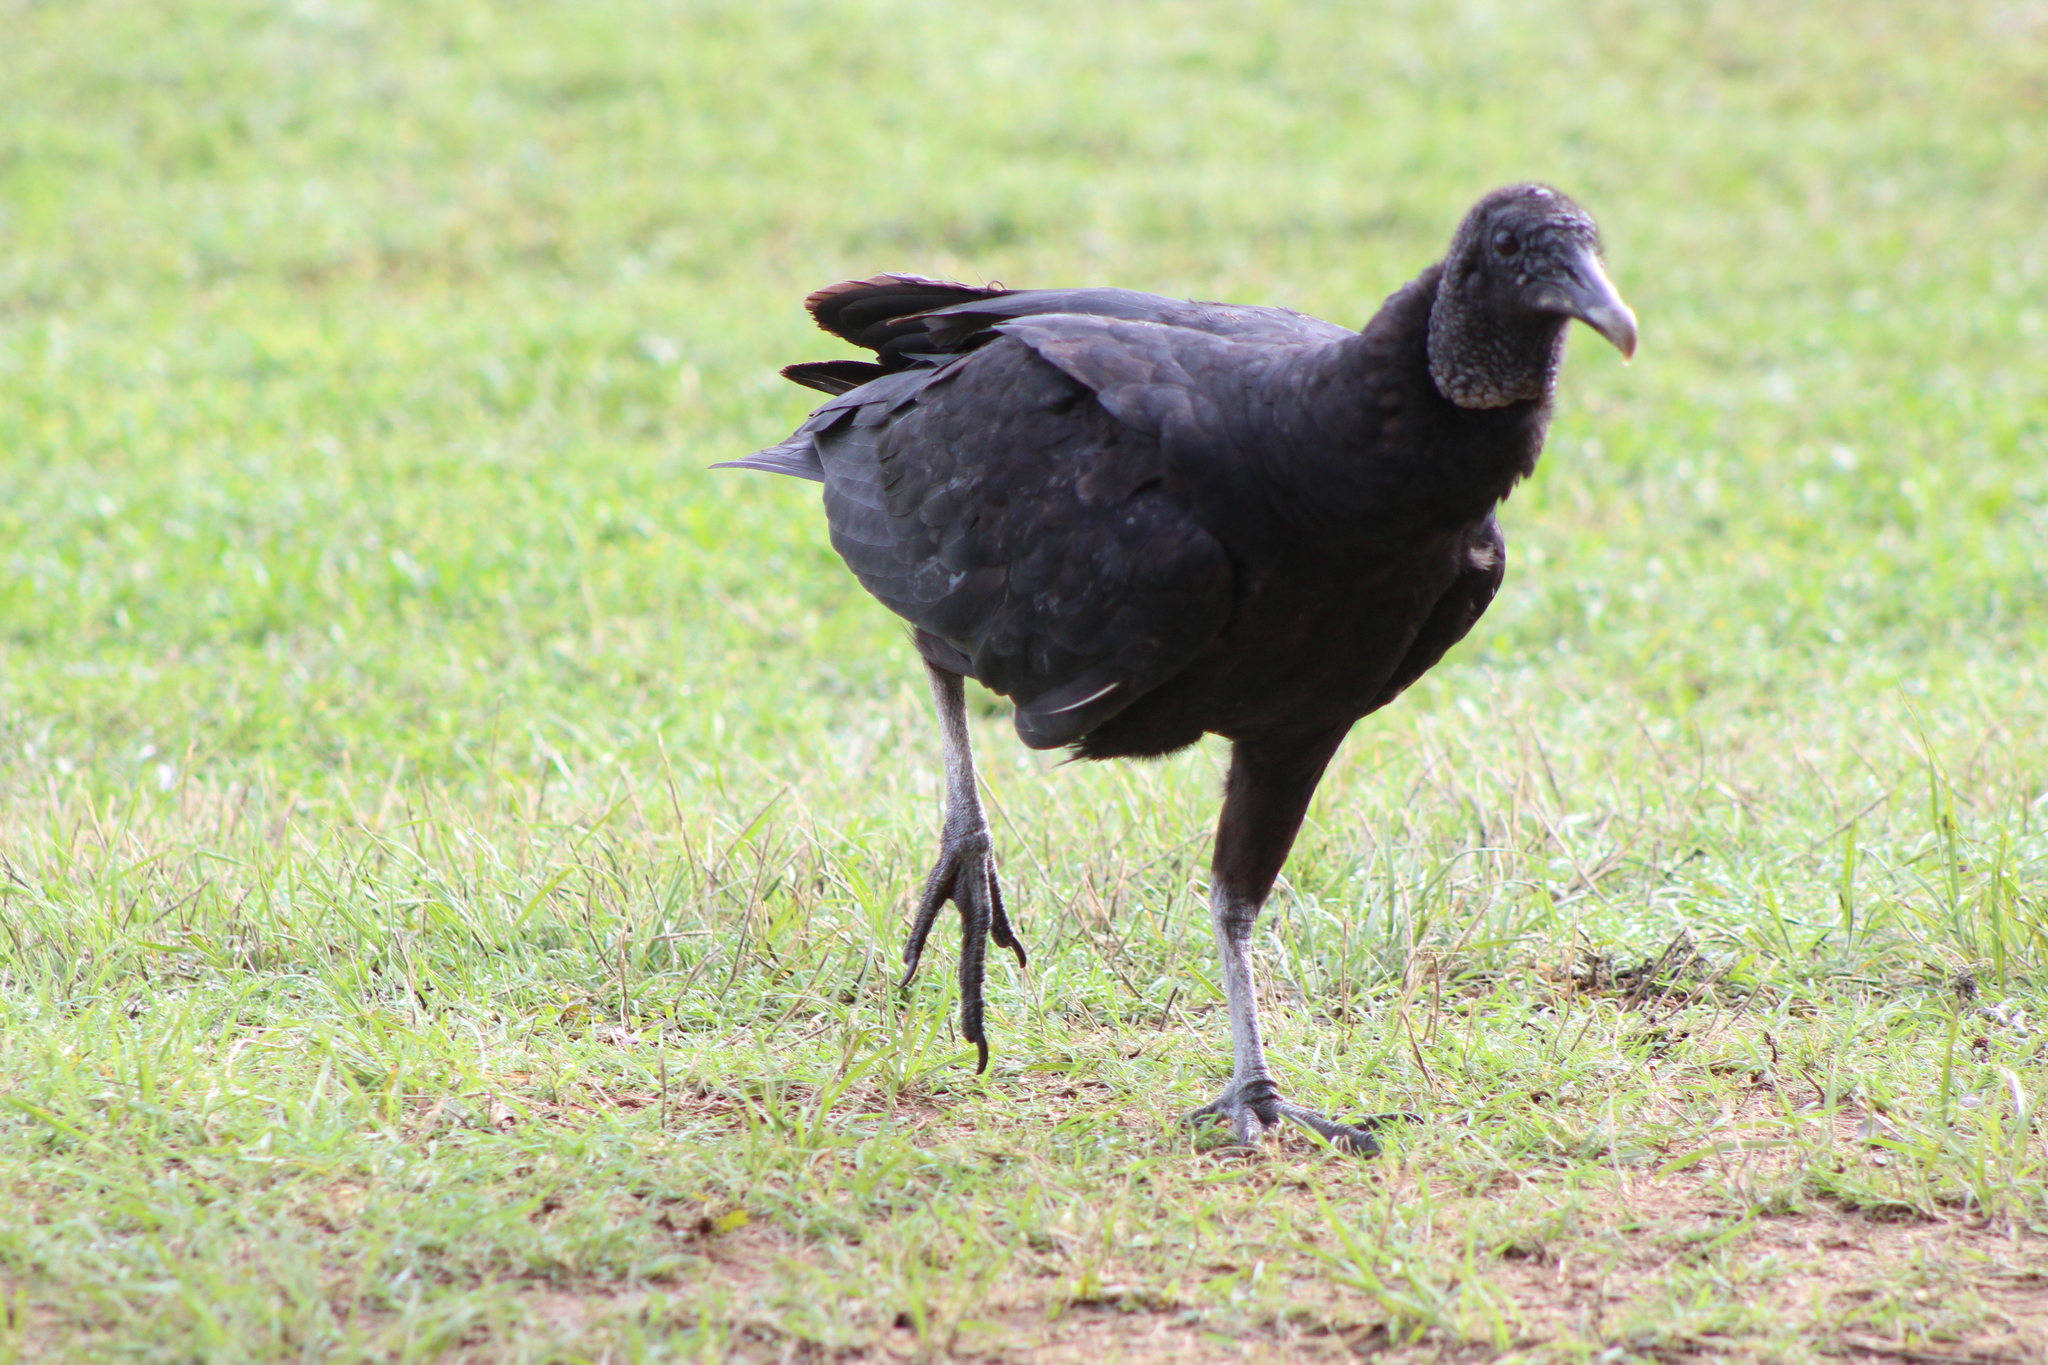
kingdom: Animalia
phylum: Chordata
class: Aves
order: Accipitriformes
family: Cathartidae
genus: Coragyps
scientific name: Coragyps atratus
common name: Black vulture
